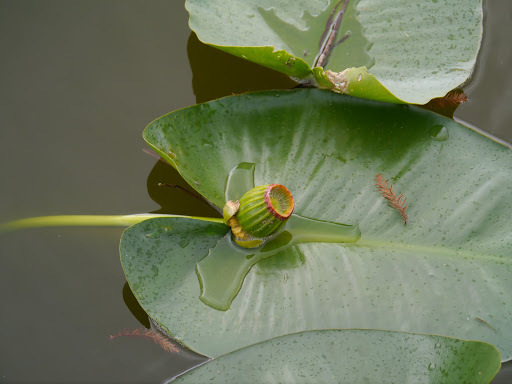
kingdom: Plantae
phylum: Tracheophyta
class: Magnoliopsida
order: Nymphaeales
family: Nymphaeaceae
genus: Nuphar
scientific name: Nuphar advena
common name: Spatter-dock
